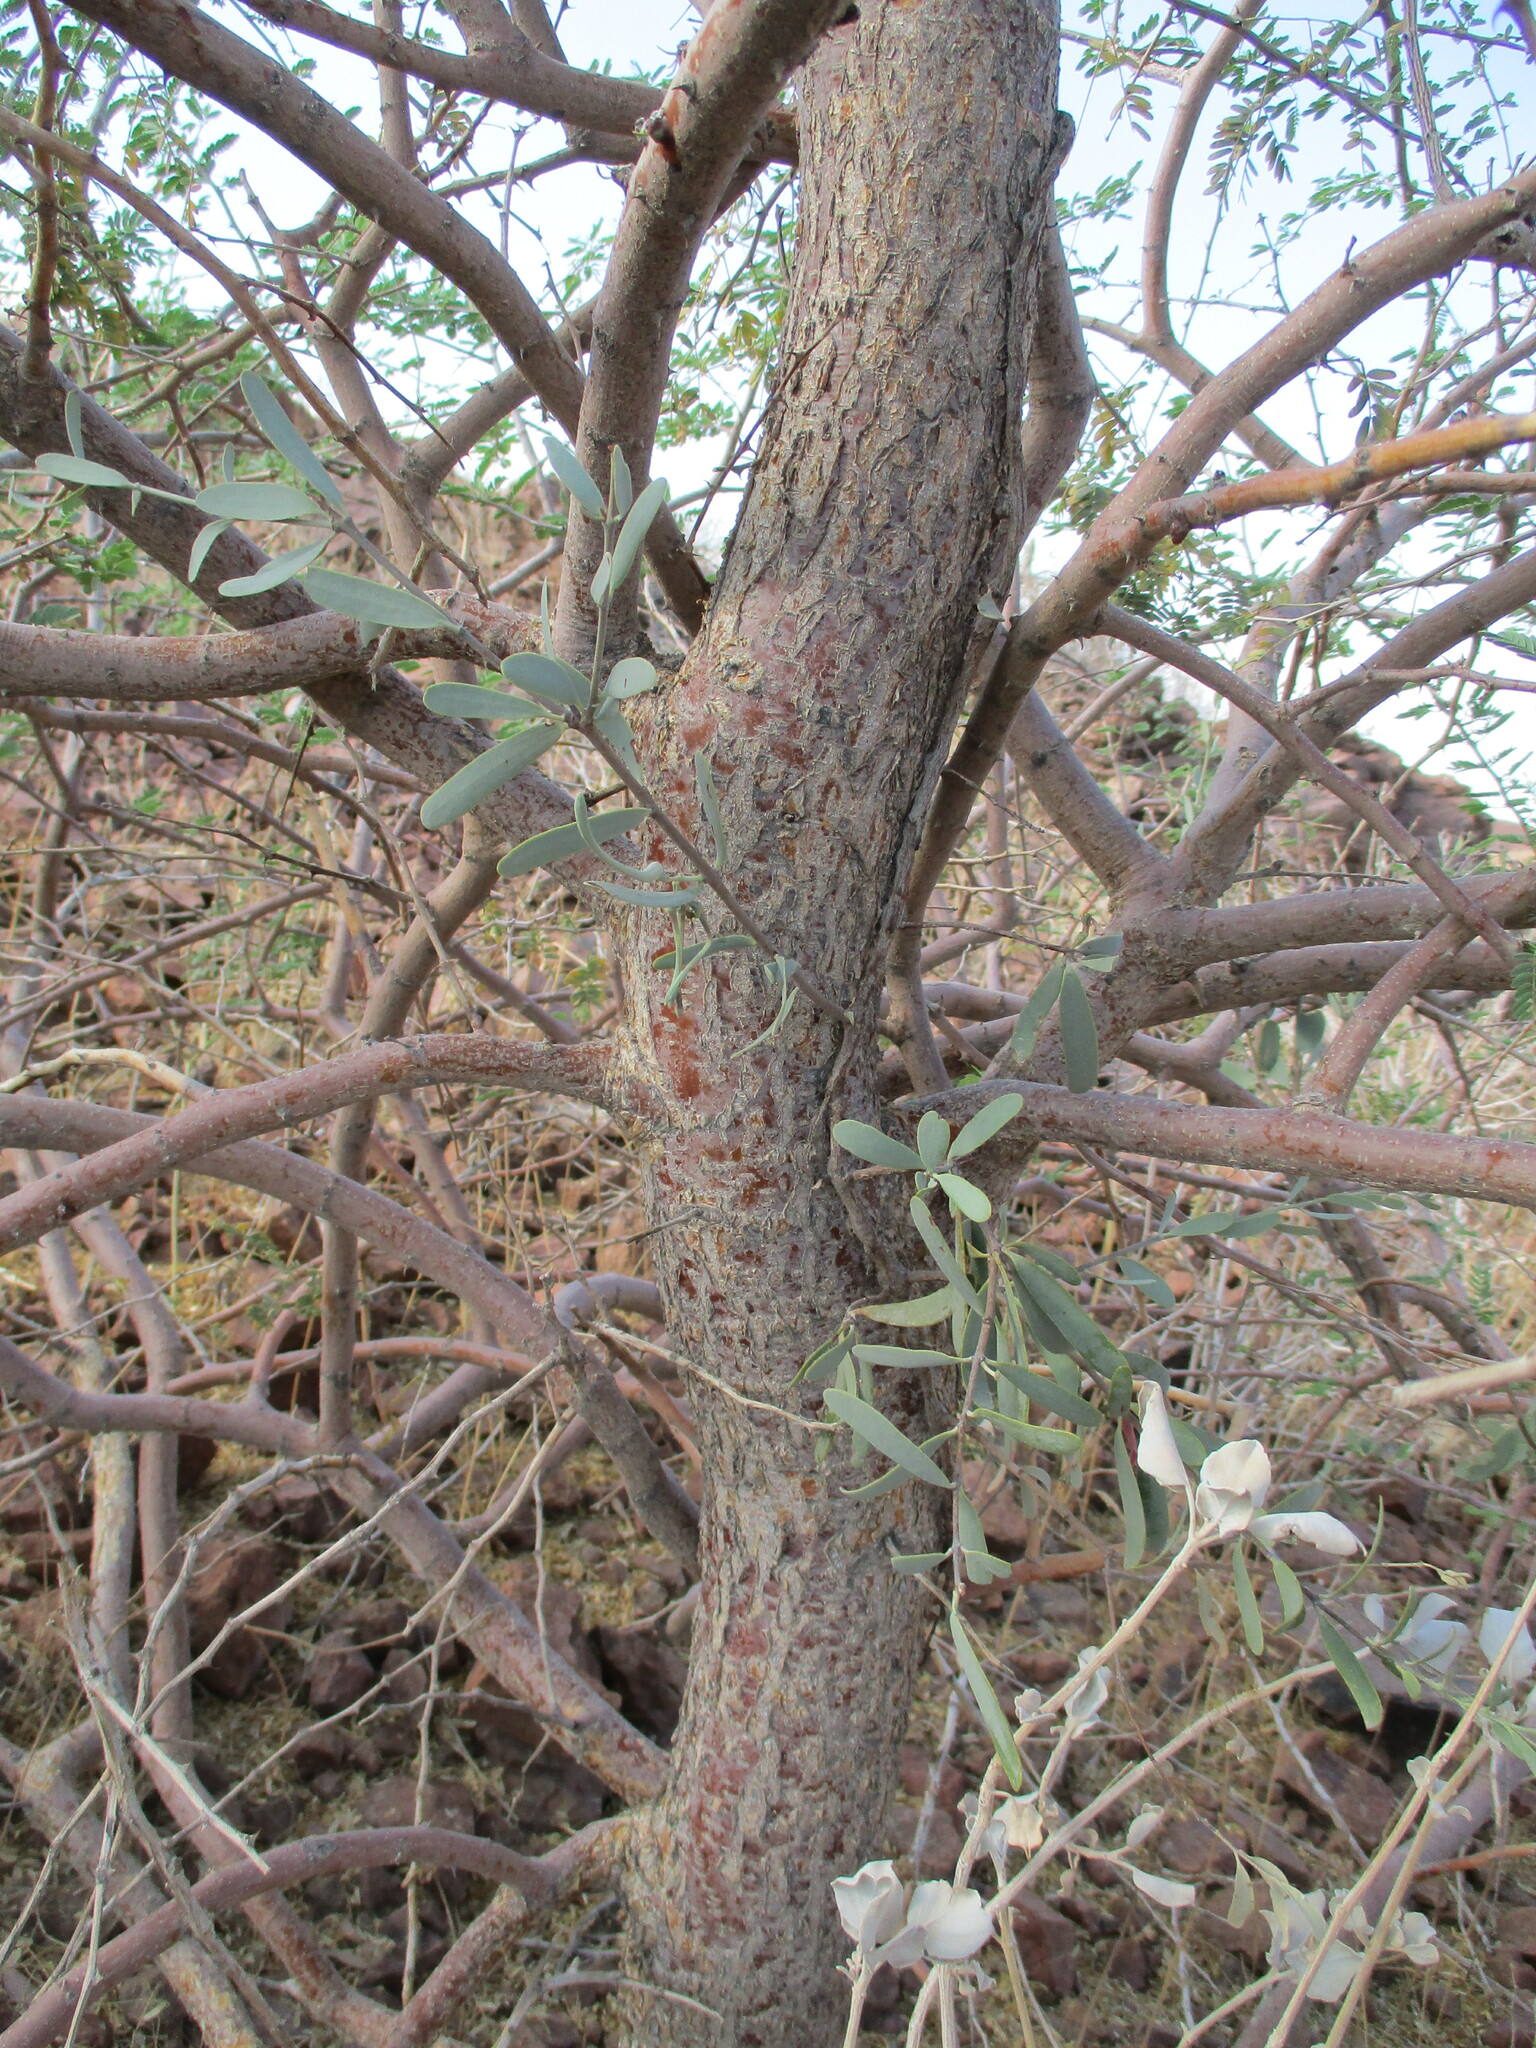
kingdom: Plantae
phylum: Tracheophyta
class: Magnoliopsida
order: Fabales
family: Fabaceae
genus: Senegalia
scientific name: Senegalia robynsiana
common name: Whip stick acacia
